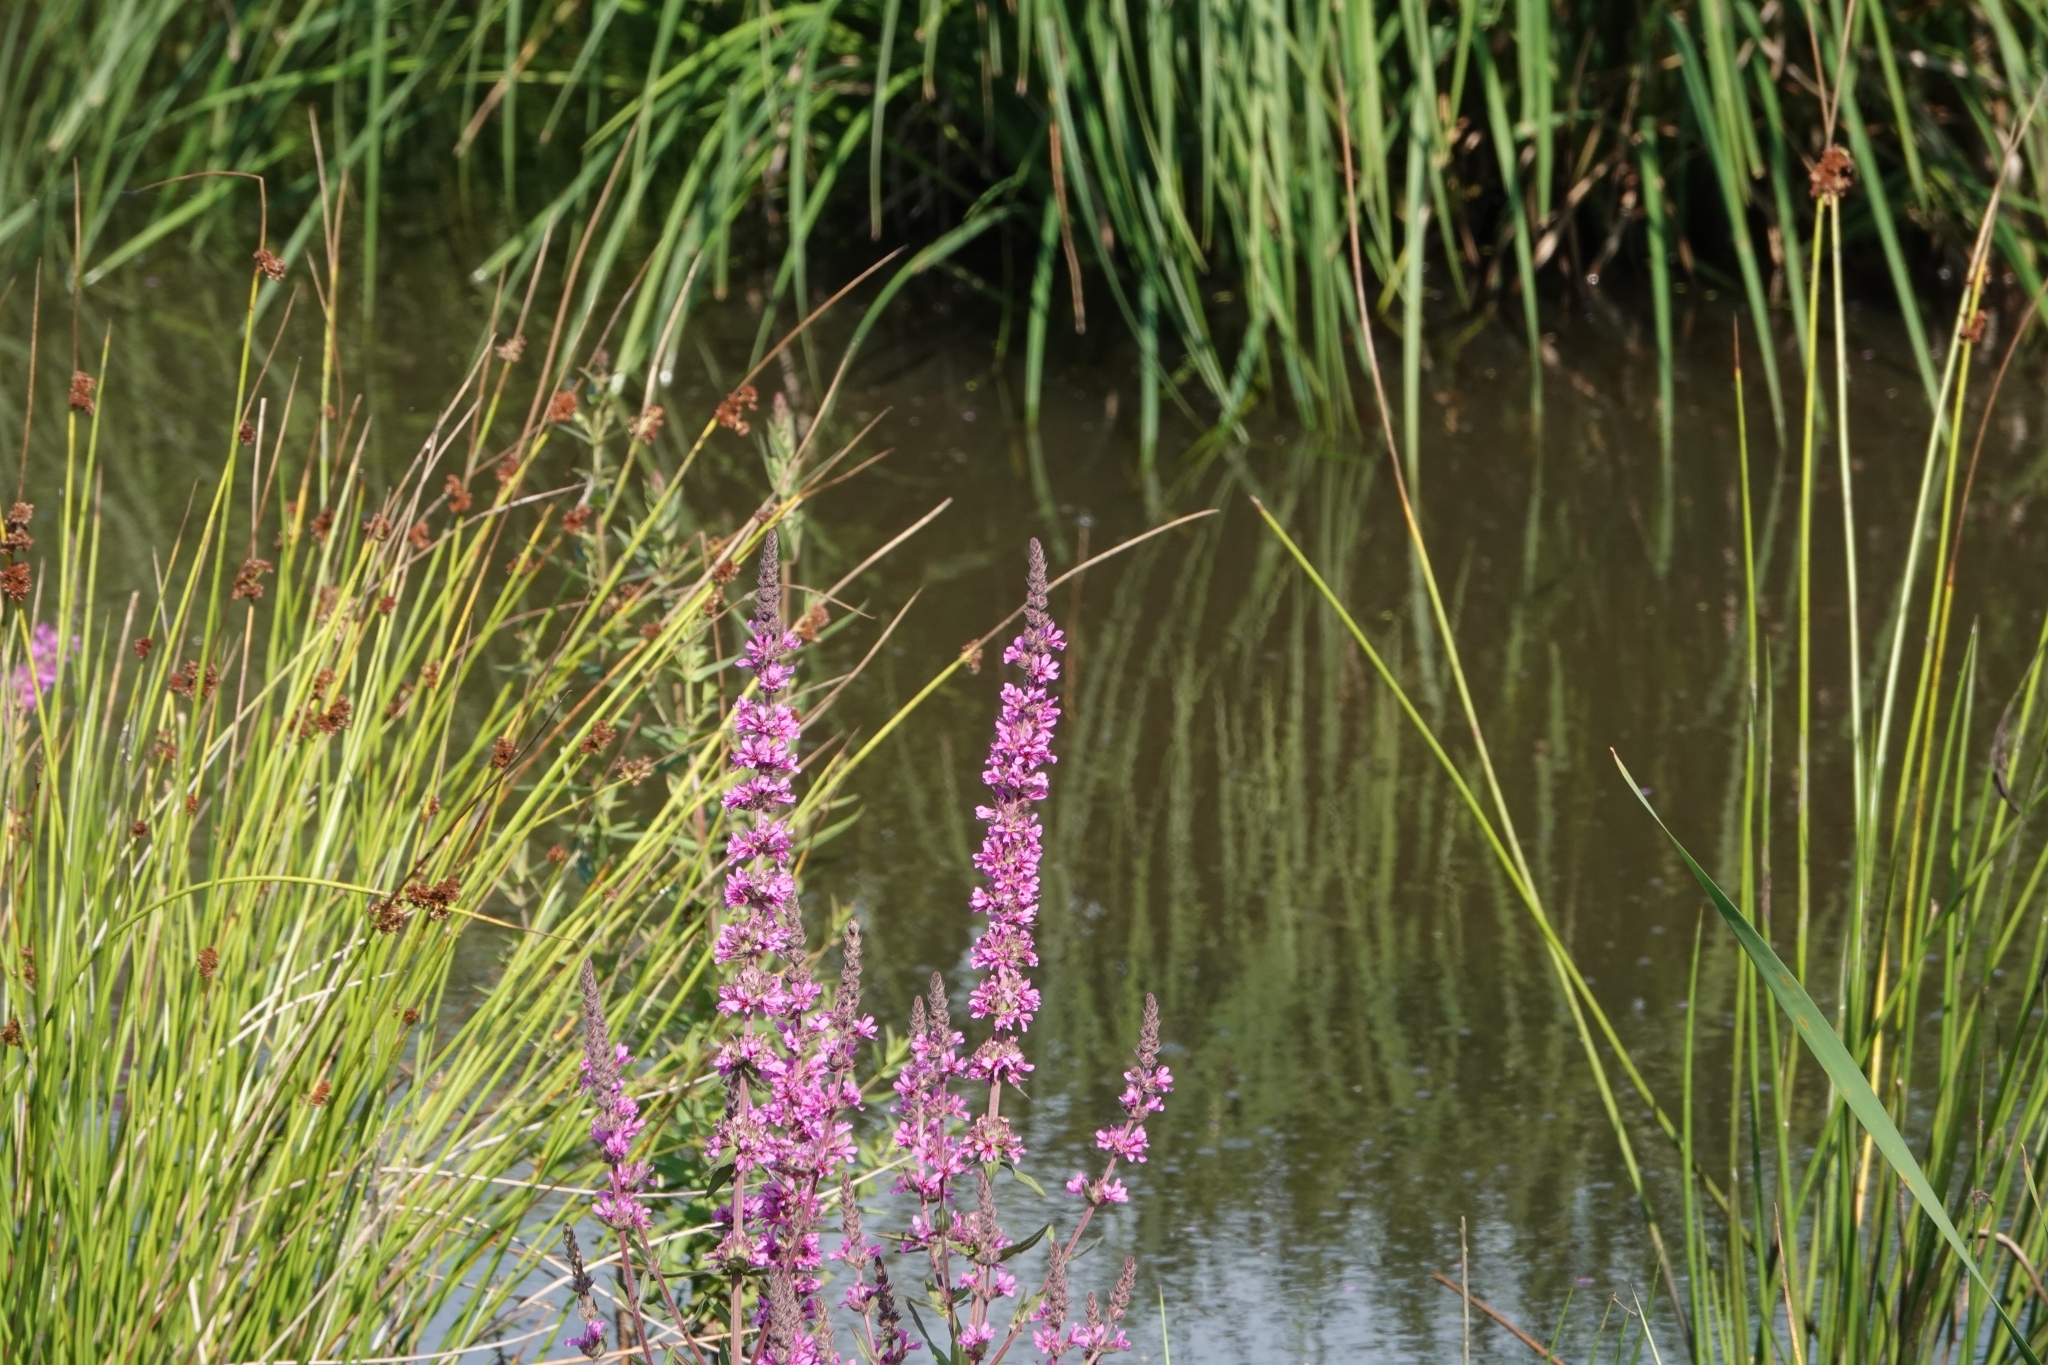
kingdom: Plantae
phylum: Tracheophyta
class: Magnoliopsida
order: Myrtales
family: Lythraceae
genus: Lythrum
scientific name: Lythrum salicaria
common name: Purple loosestrife
